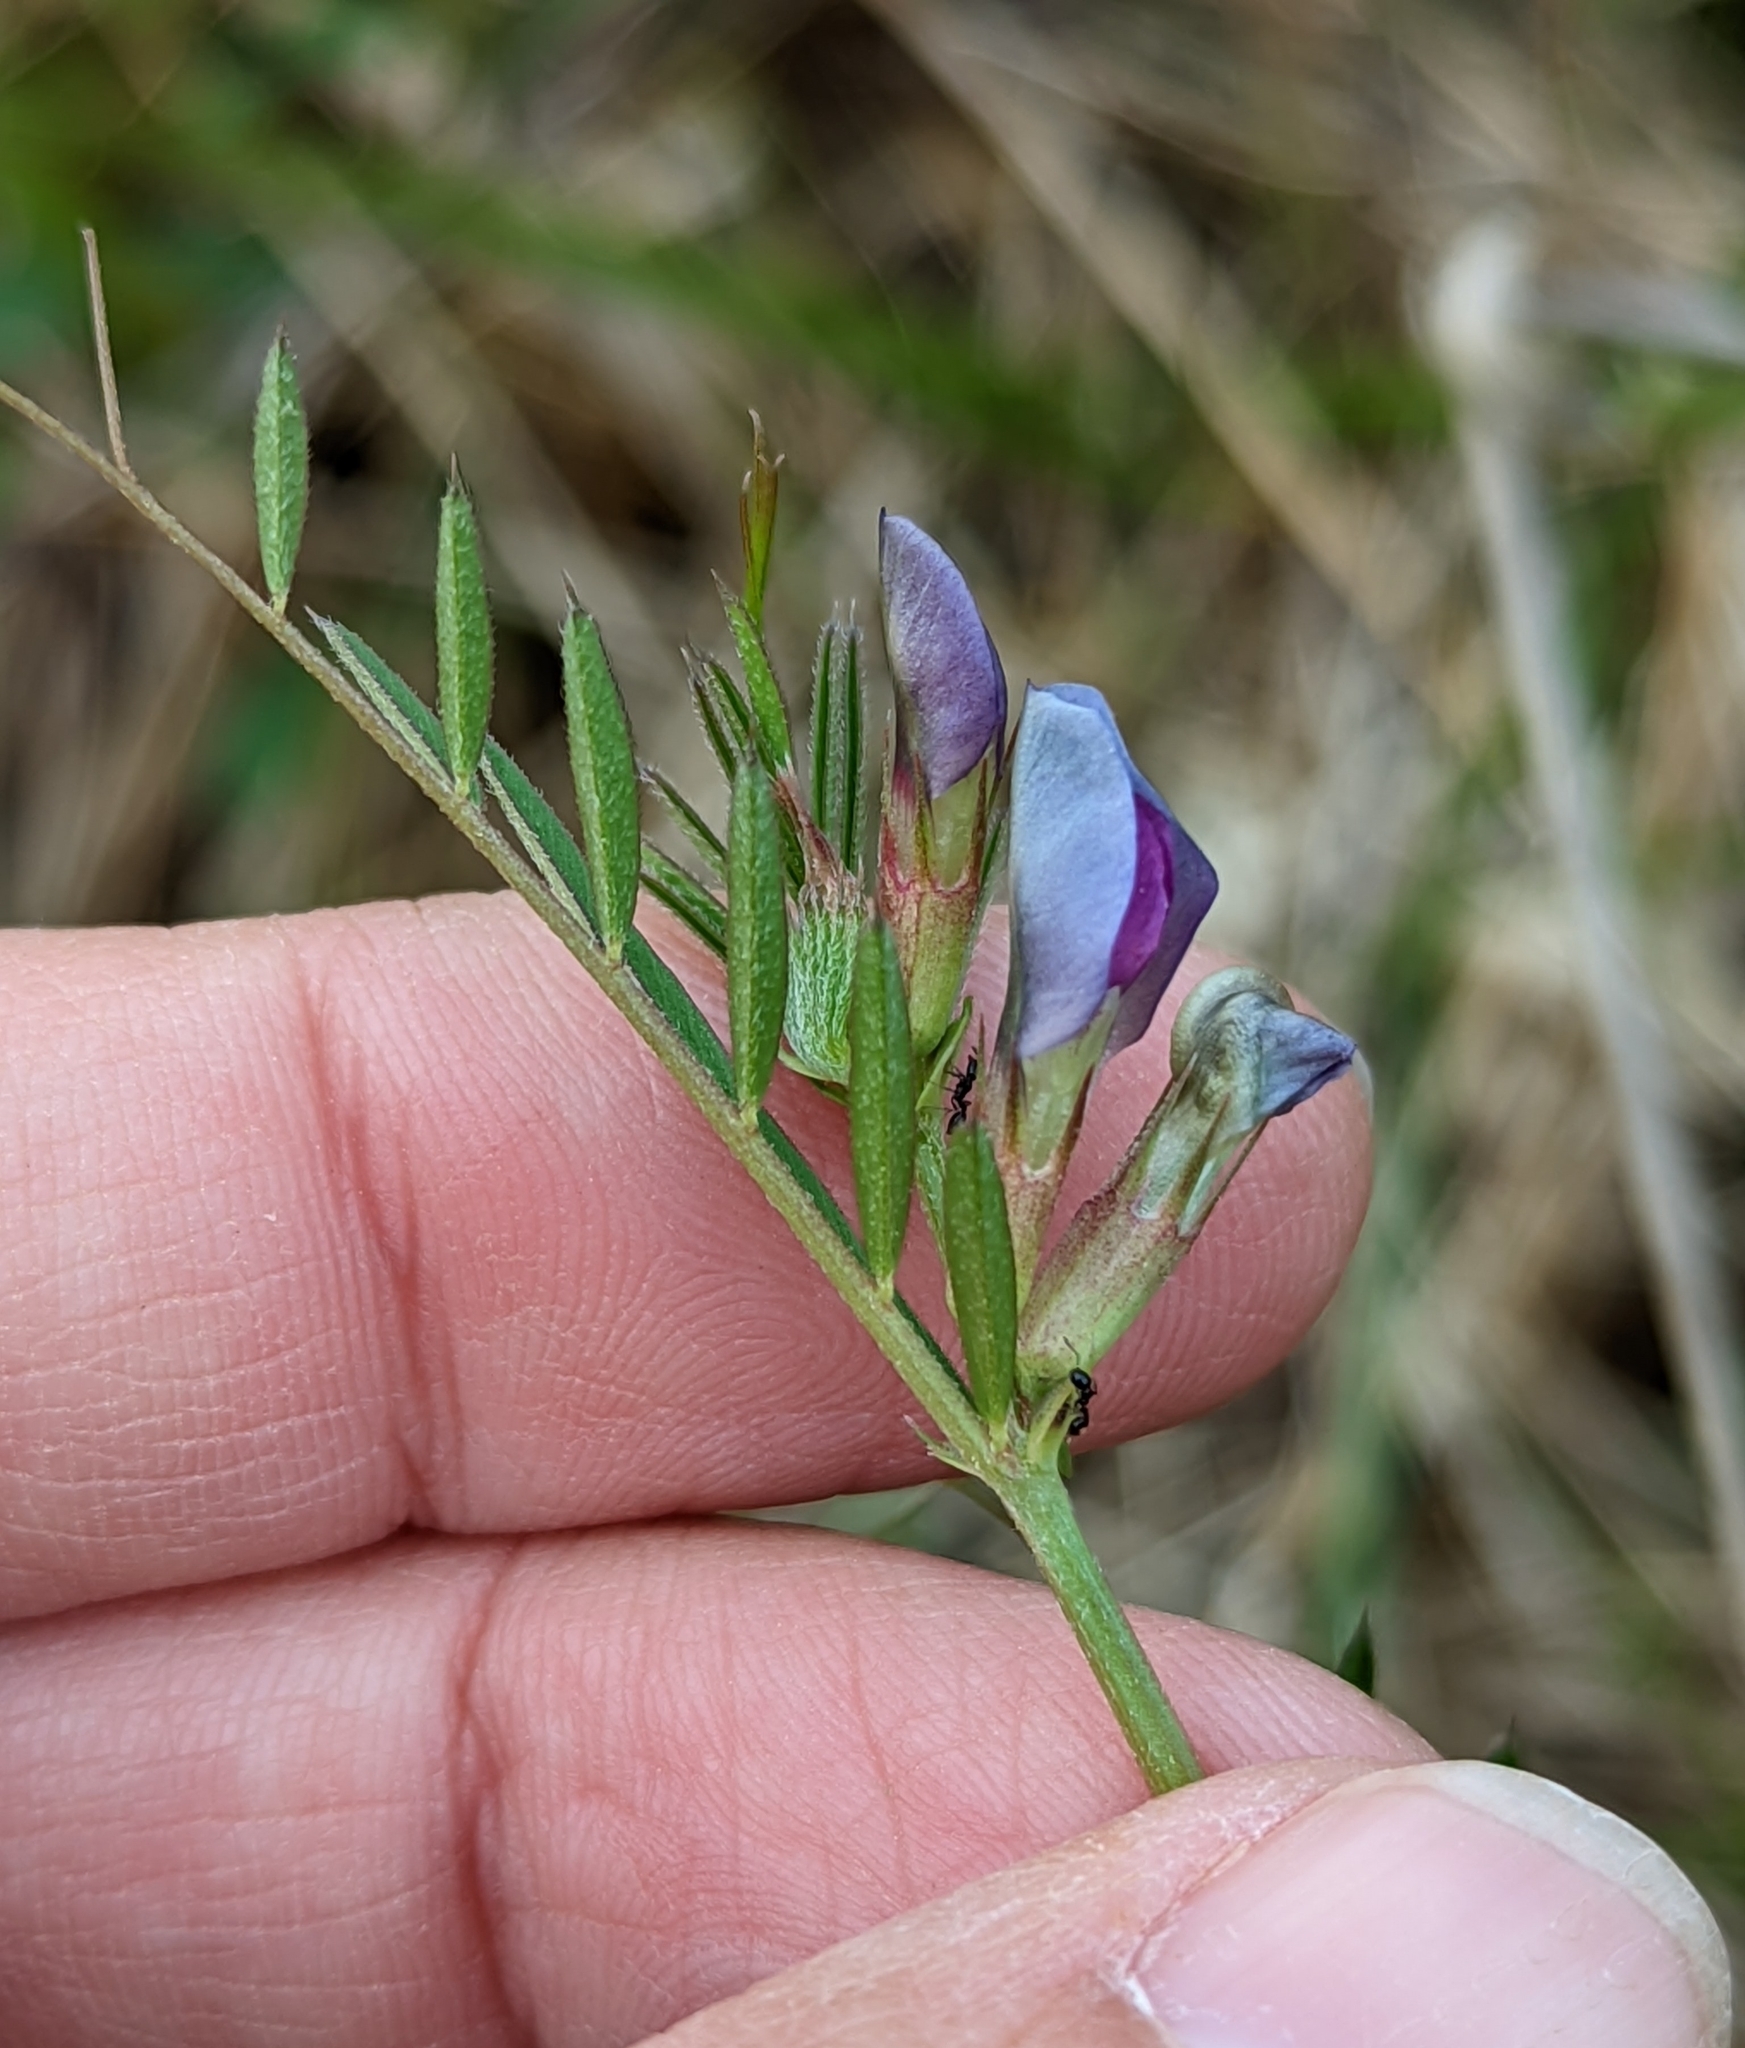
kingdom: Plantae
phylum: Tracheophyta
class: Magnoliopsida
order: Fabales
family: Fabaceae
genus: Vicia
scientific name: Vicia sativa
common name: Garden vetch
